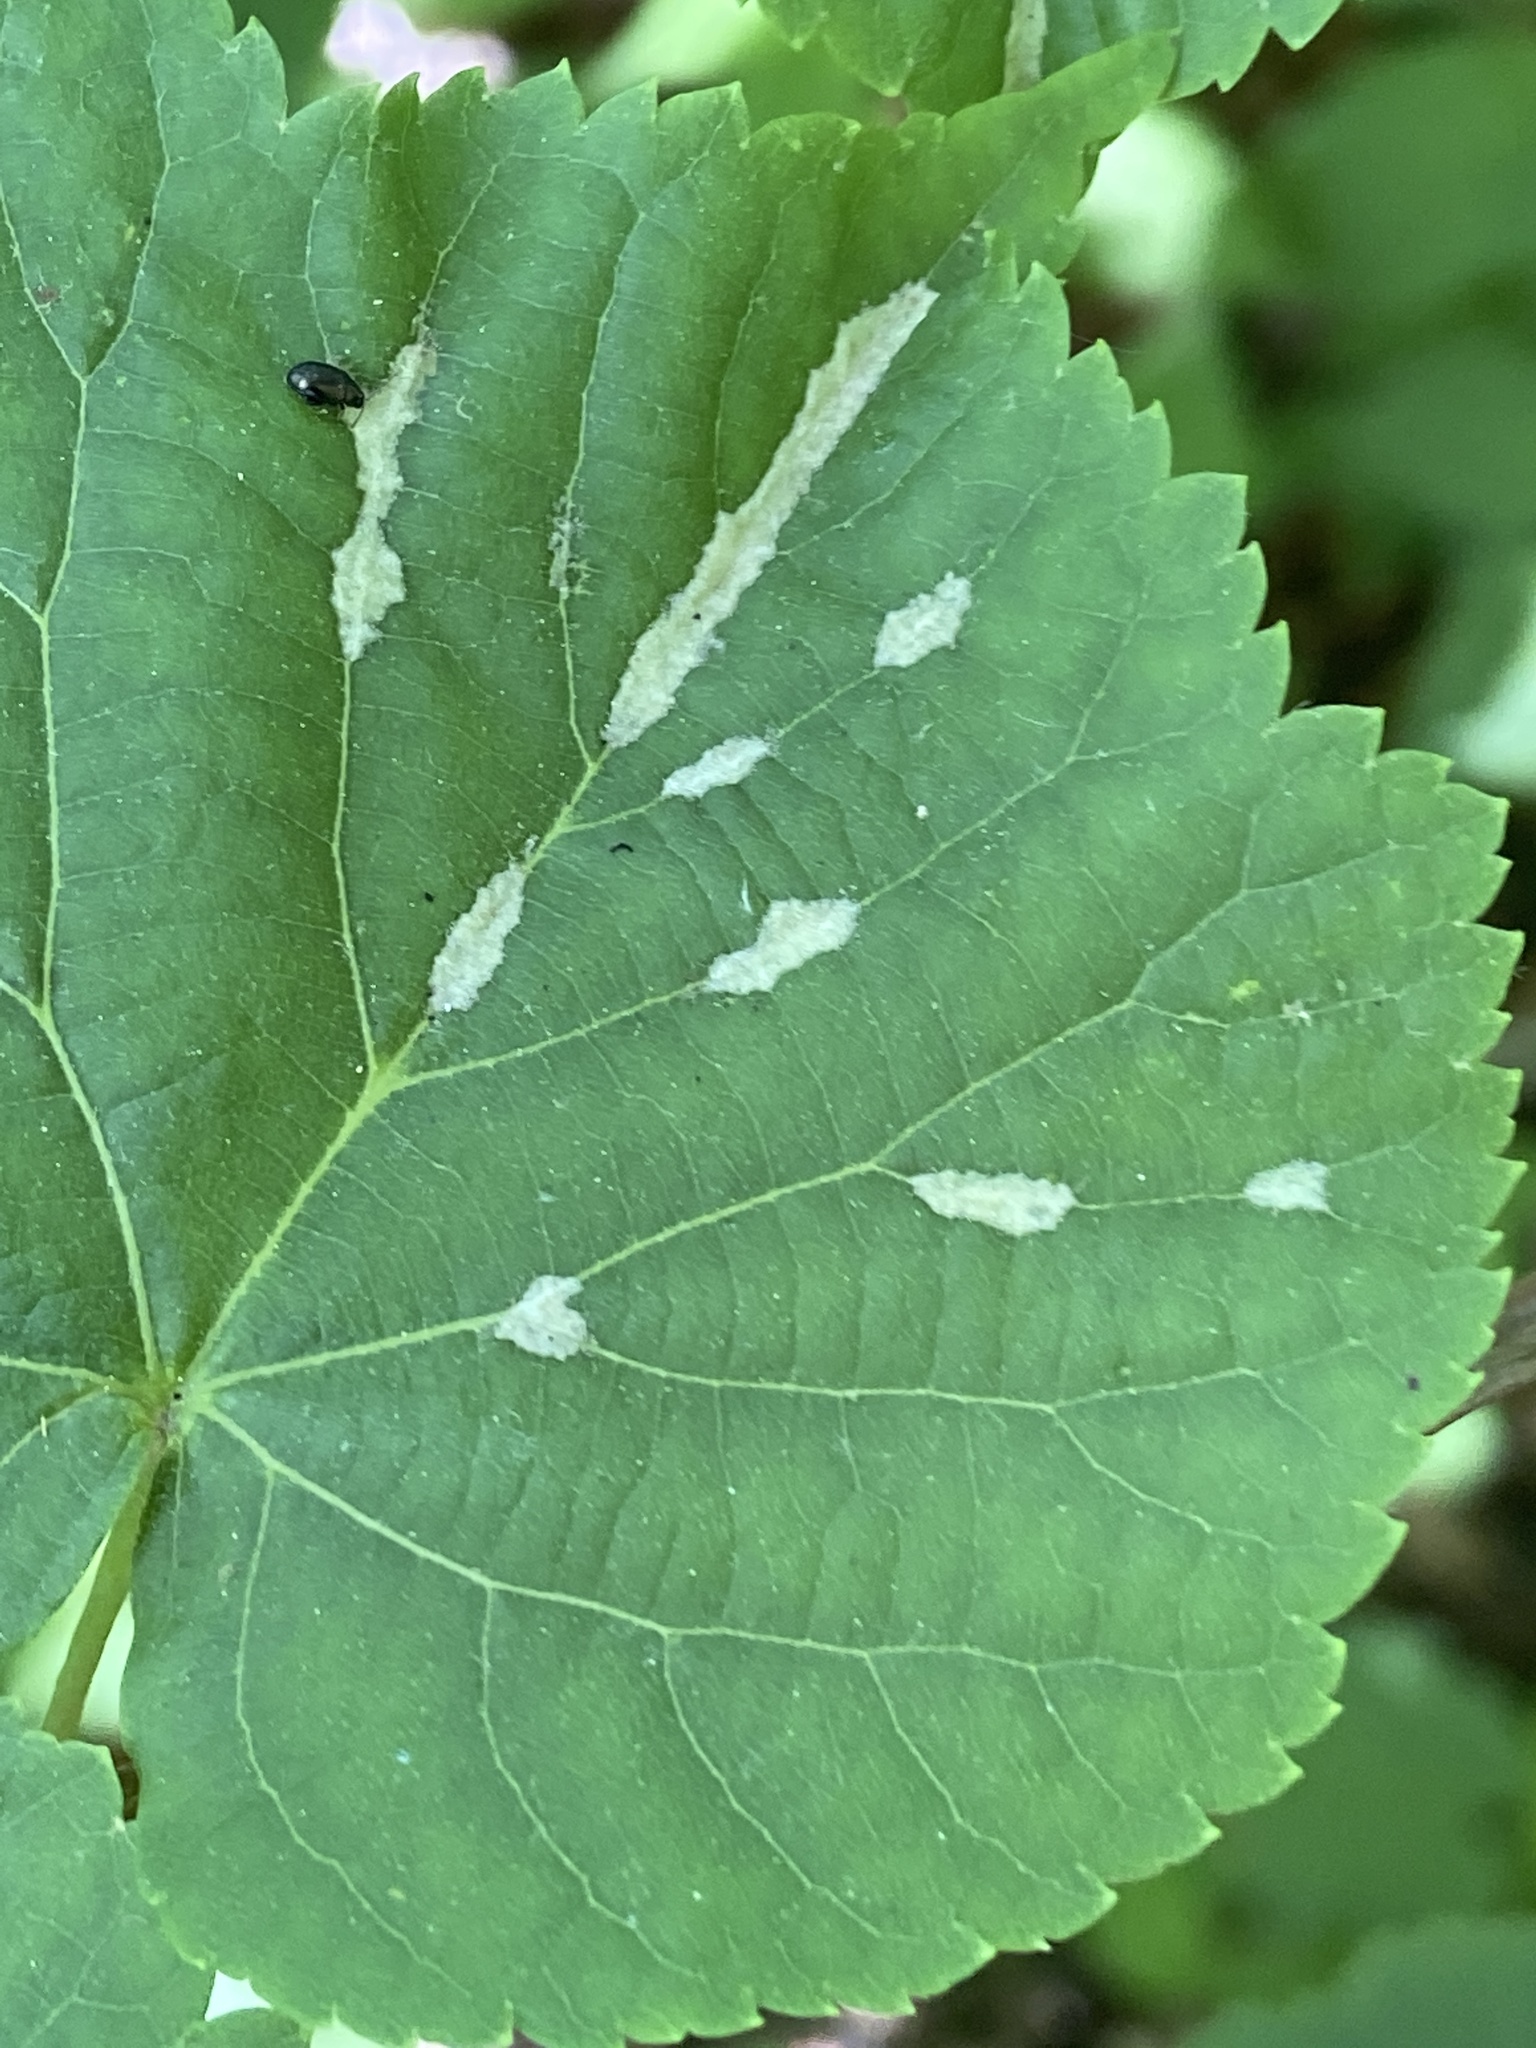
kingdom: Animalia
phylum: Arthropoda
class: Arachnida
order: Trombidiformes
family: Eriophyidae
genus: Eriophyes
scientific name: Eriophyes exilis
